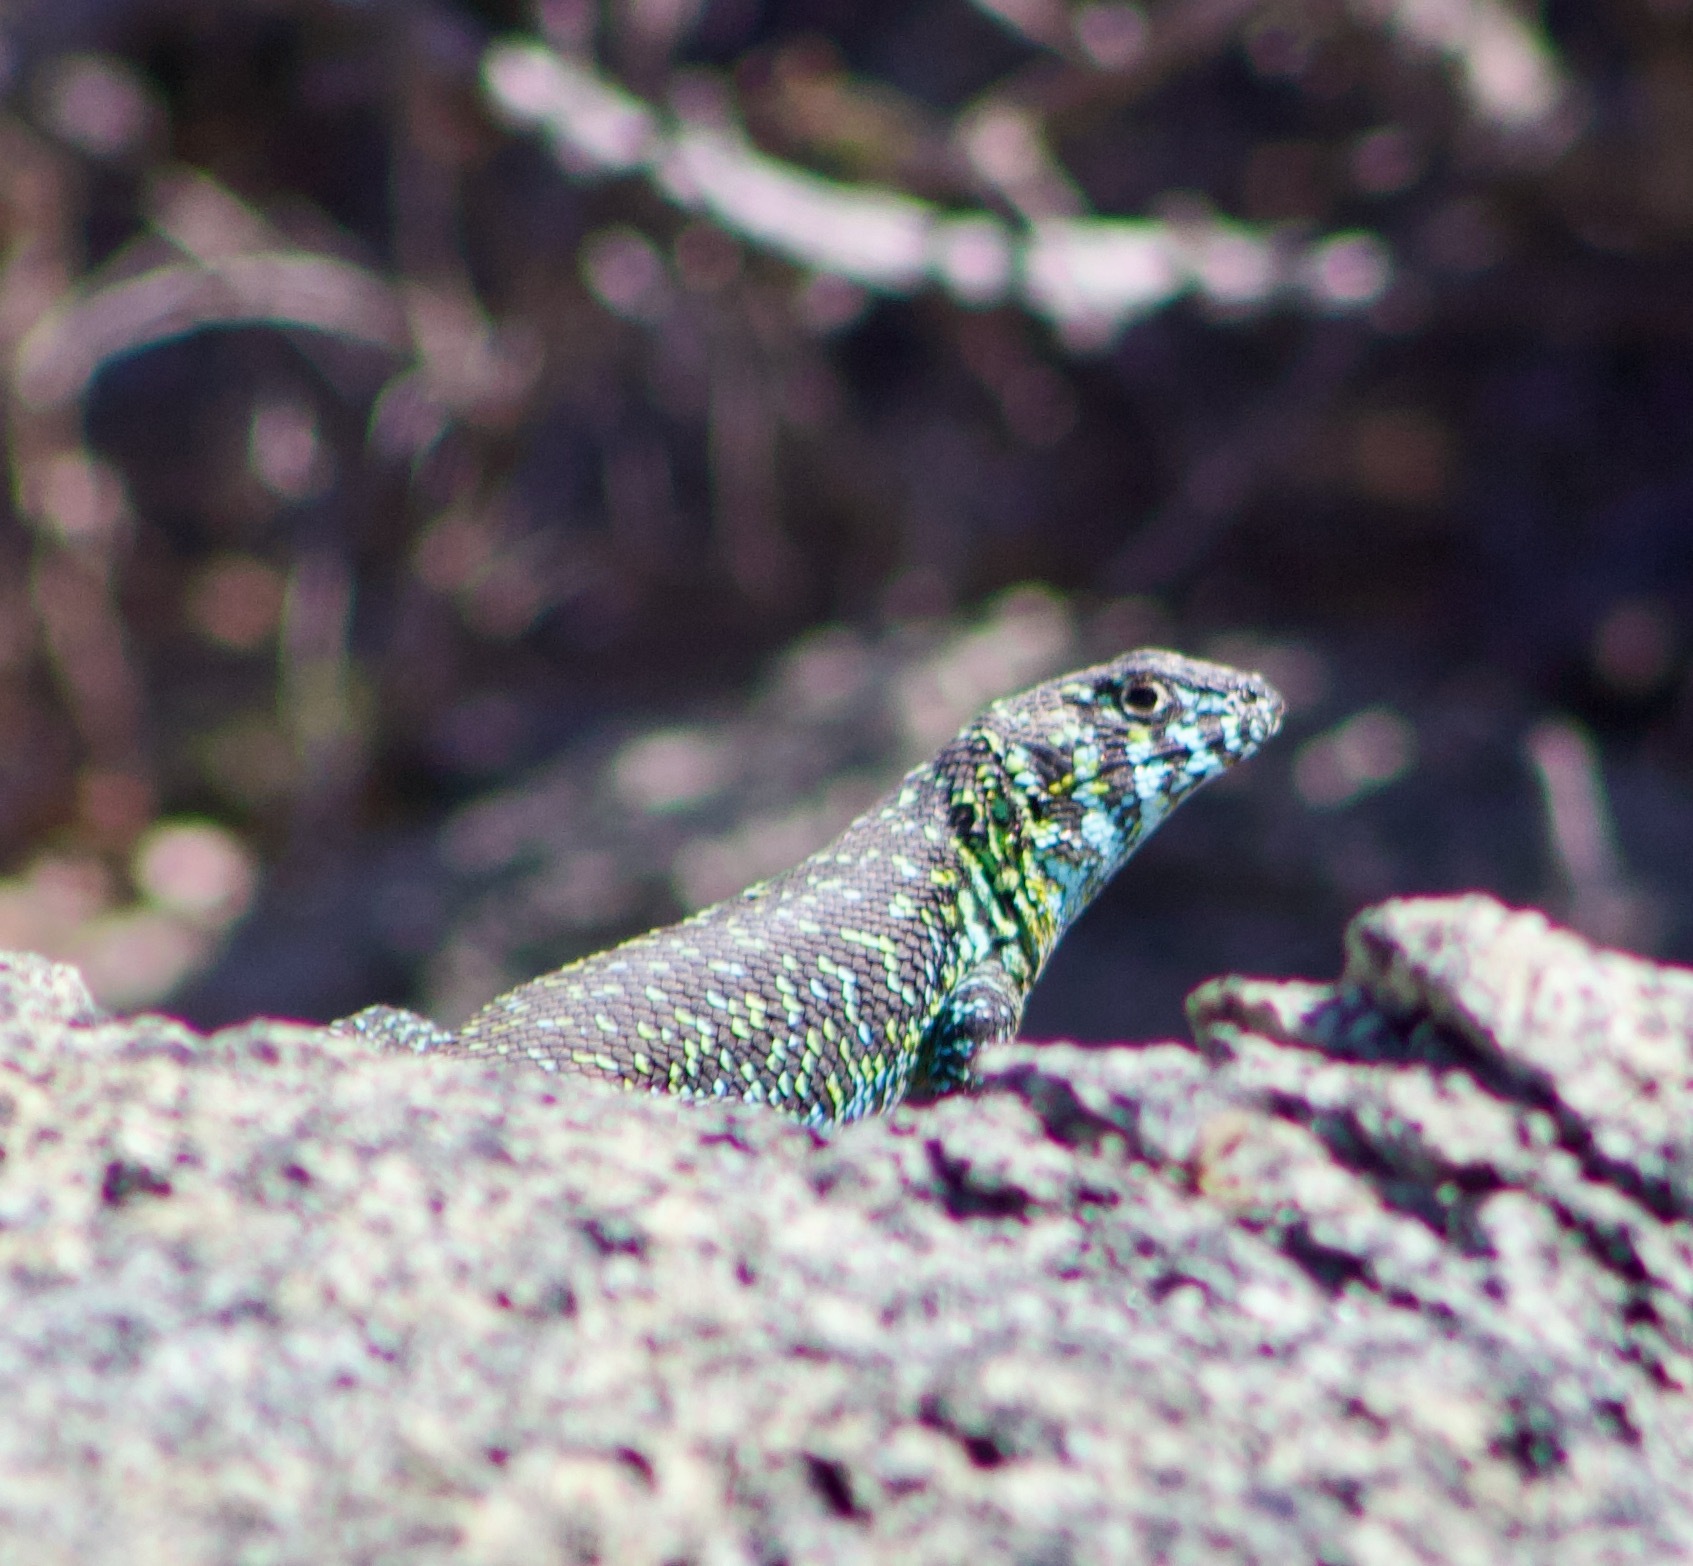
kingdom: Animalia
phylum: Chordata
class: Squamata
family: Liolaemidae
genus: Liolaemus
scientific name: Liolaemus zapallarensis
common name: Zapallaren tree iguana
